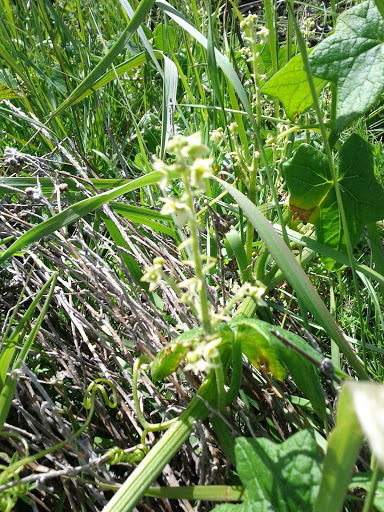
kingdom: Plantae
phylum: Tracheophyta
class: Magnoliopsida
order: Cucurbitales
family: Cucurbitaceae
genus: Marah
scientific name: Marah fabacea
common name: California manroot
